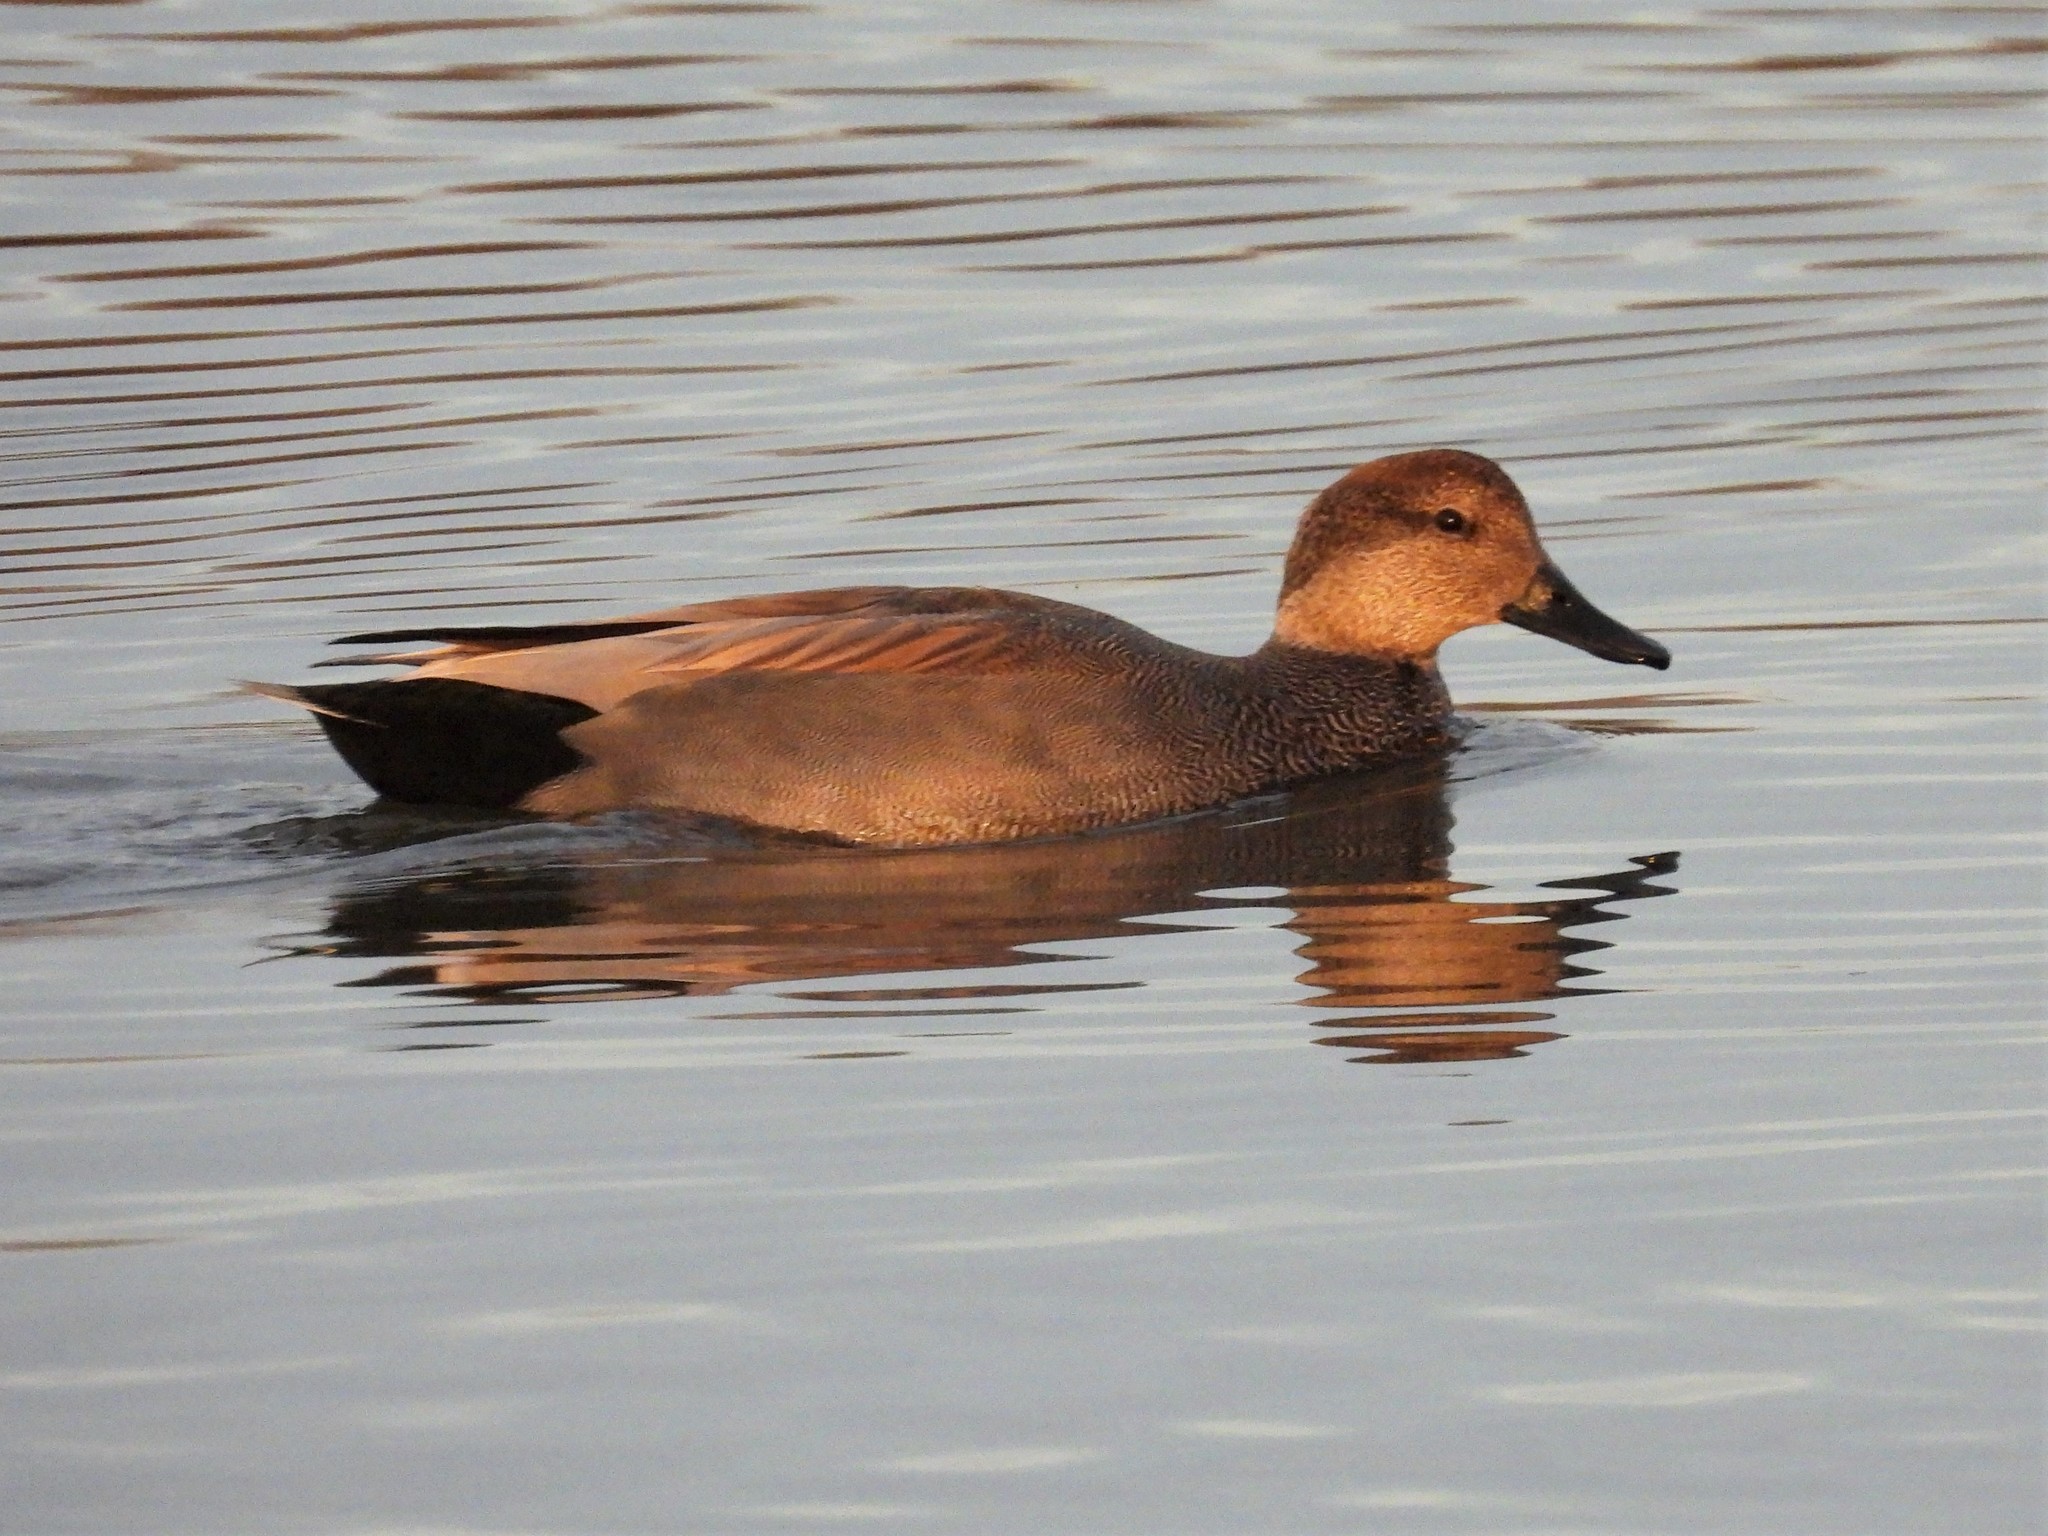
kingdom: Animalia
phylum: Chordata
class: Aves
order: Anseriformes
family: Anatidae
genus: Mareca
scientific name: Mareca strepera
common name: Gadwall
